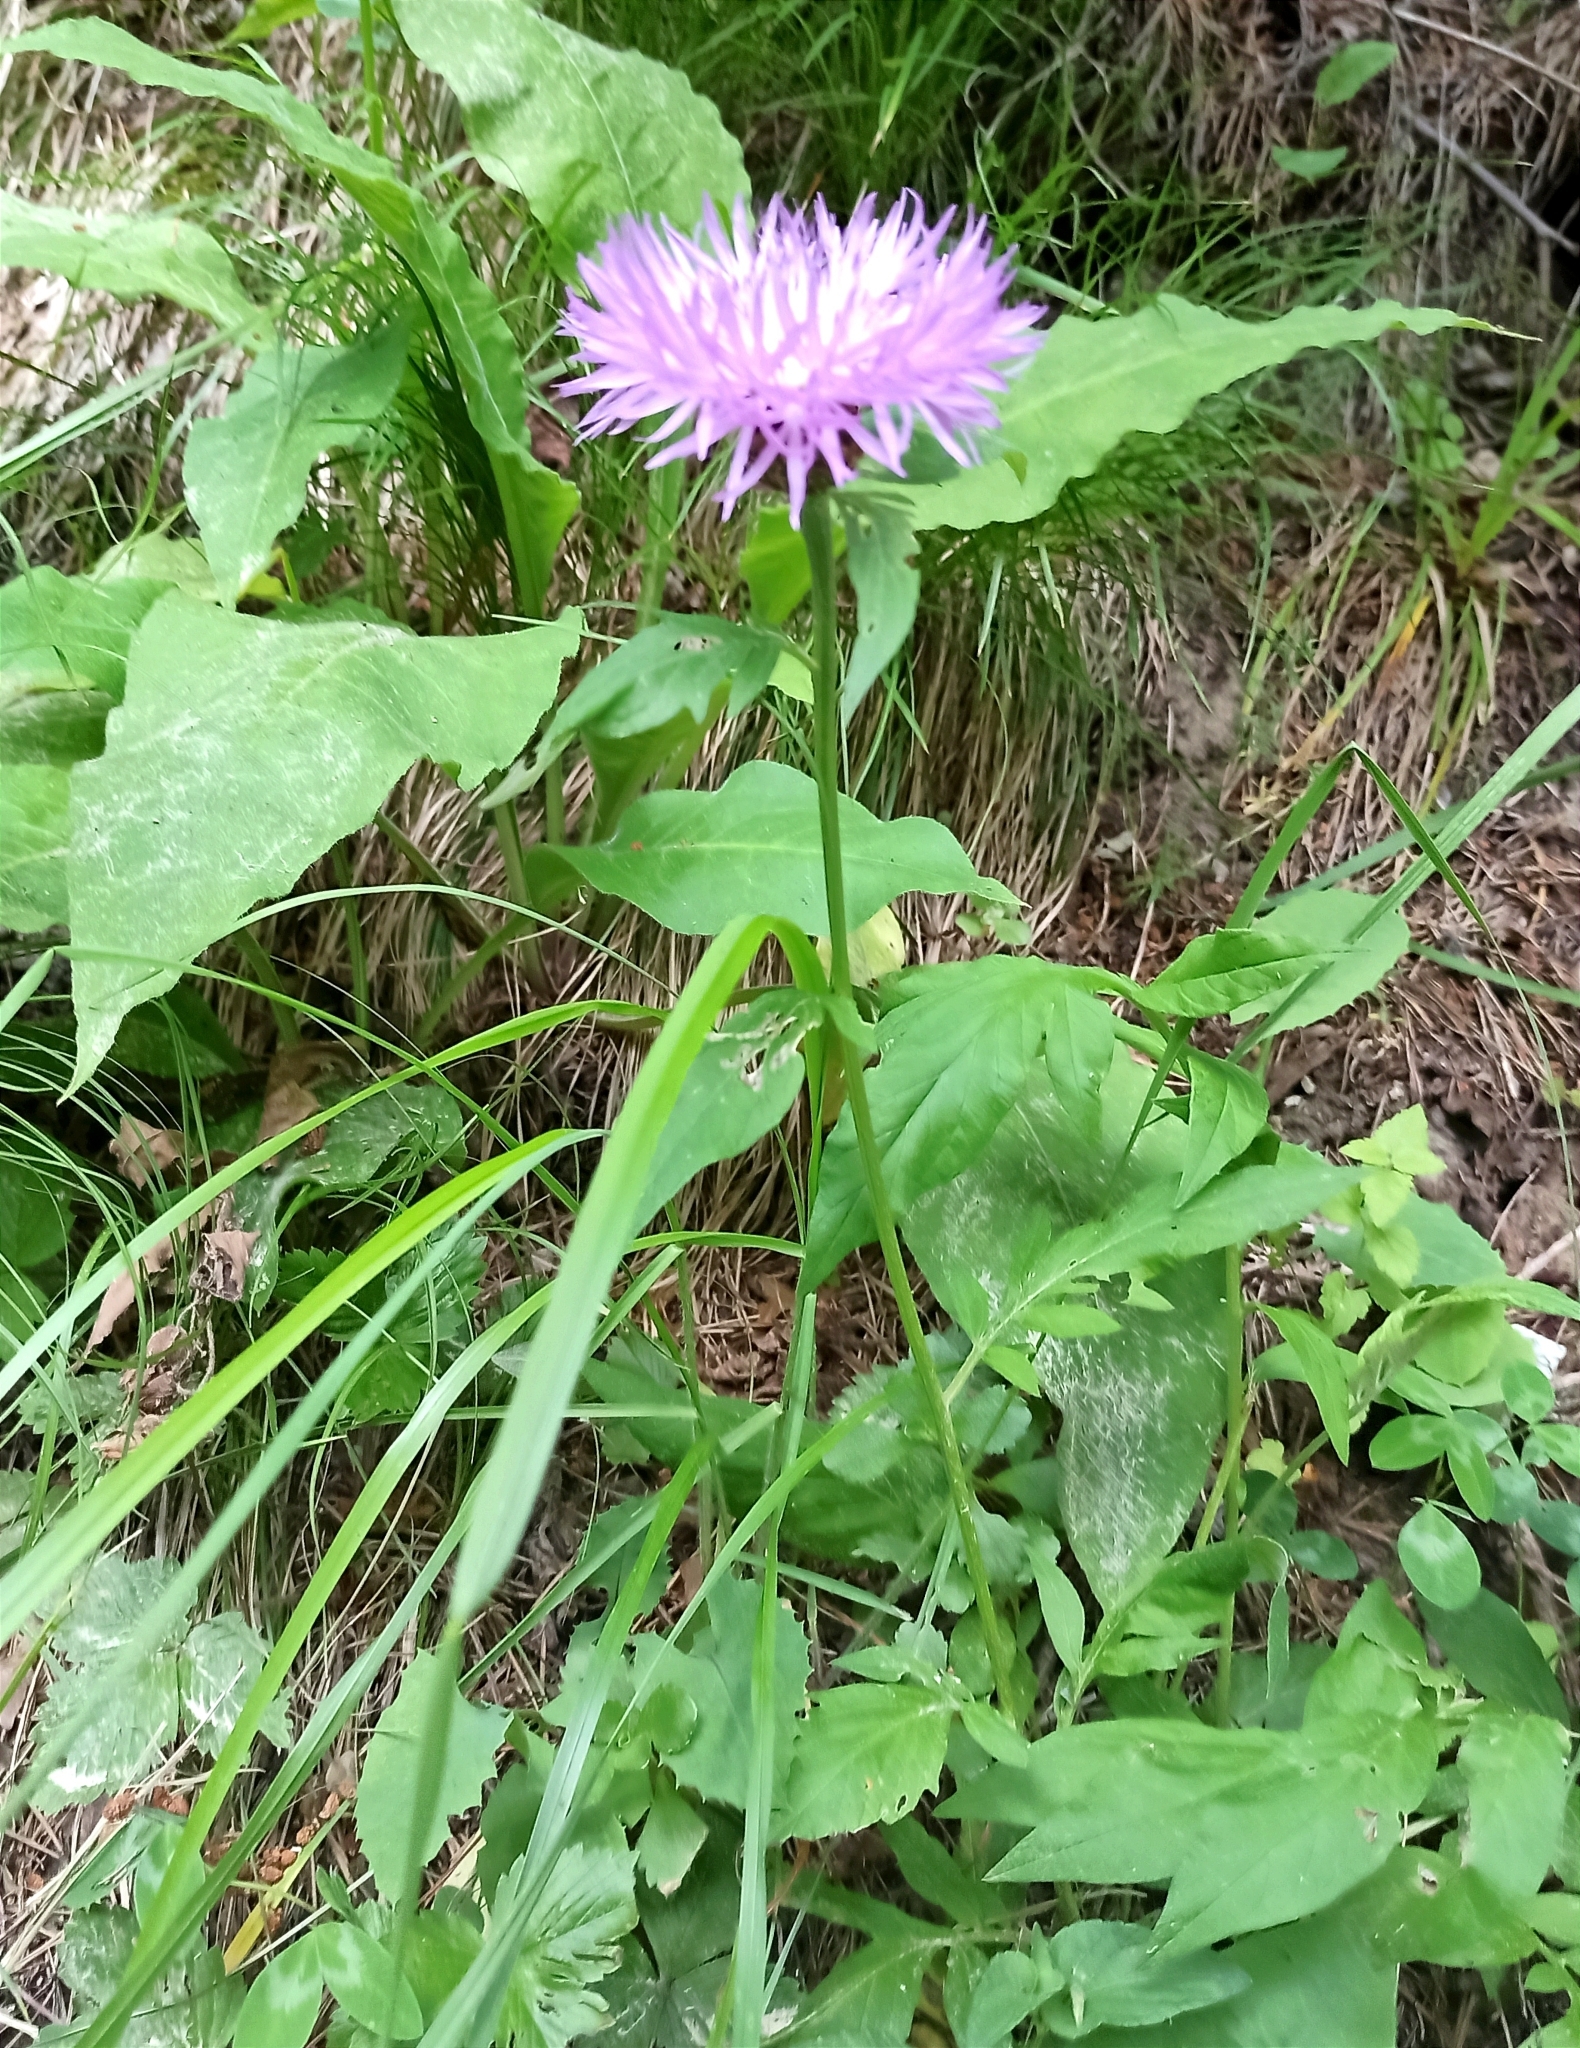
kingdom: Plantae
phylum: Tracheophyta
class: Magnoliopsida
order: Asterales
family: Asteraceae
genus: Psephellus
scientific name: Psephellus dealbatus
